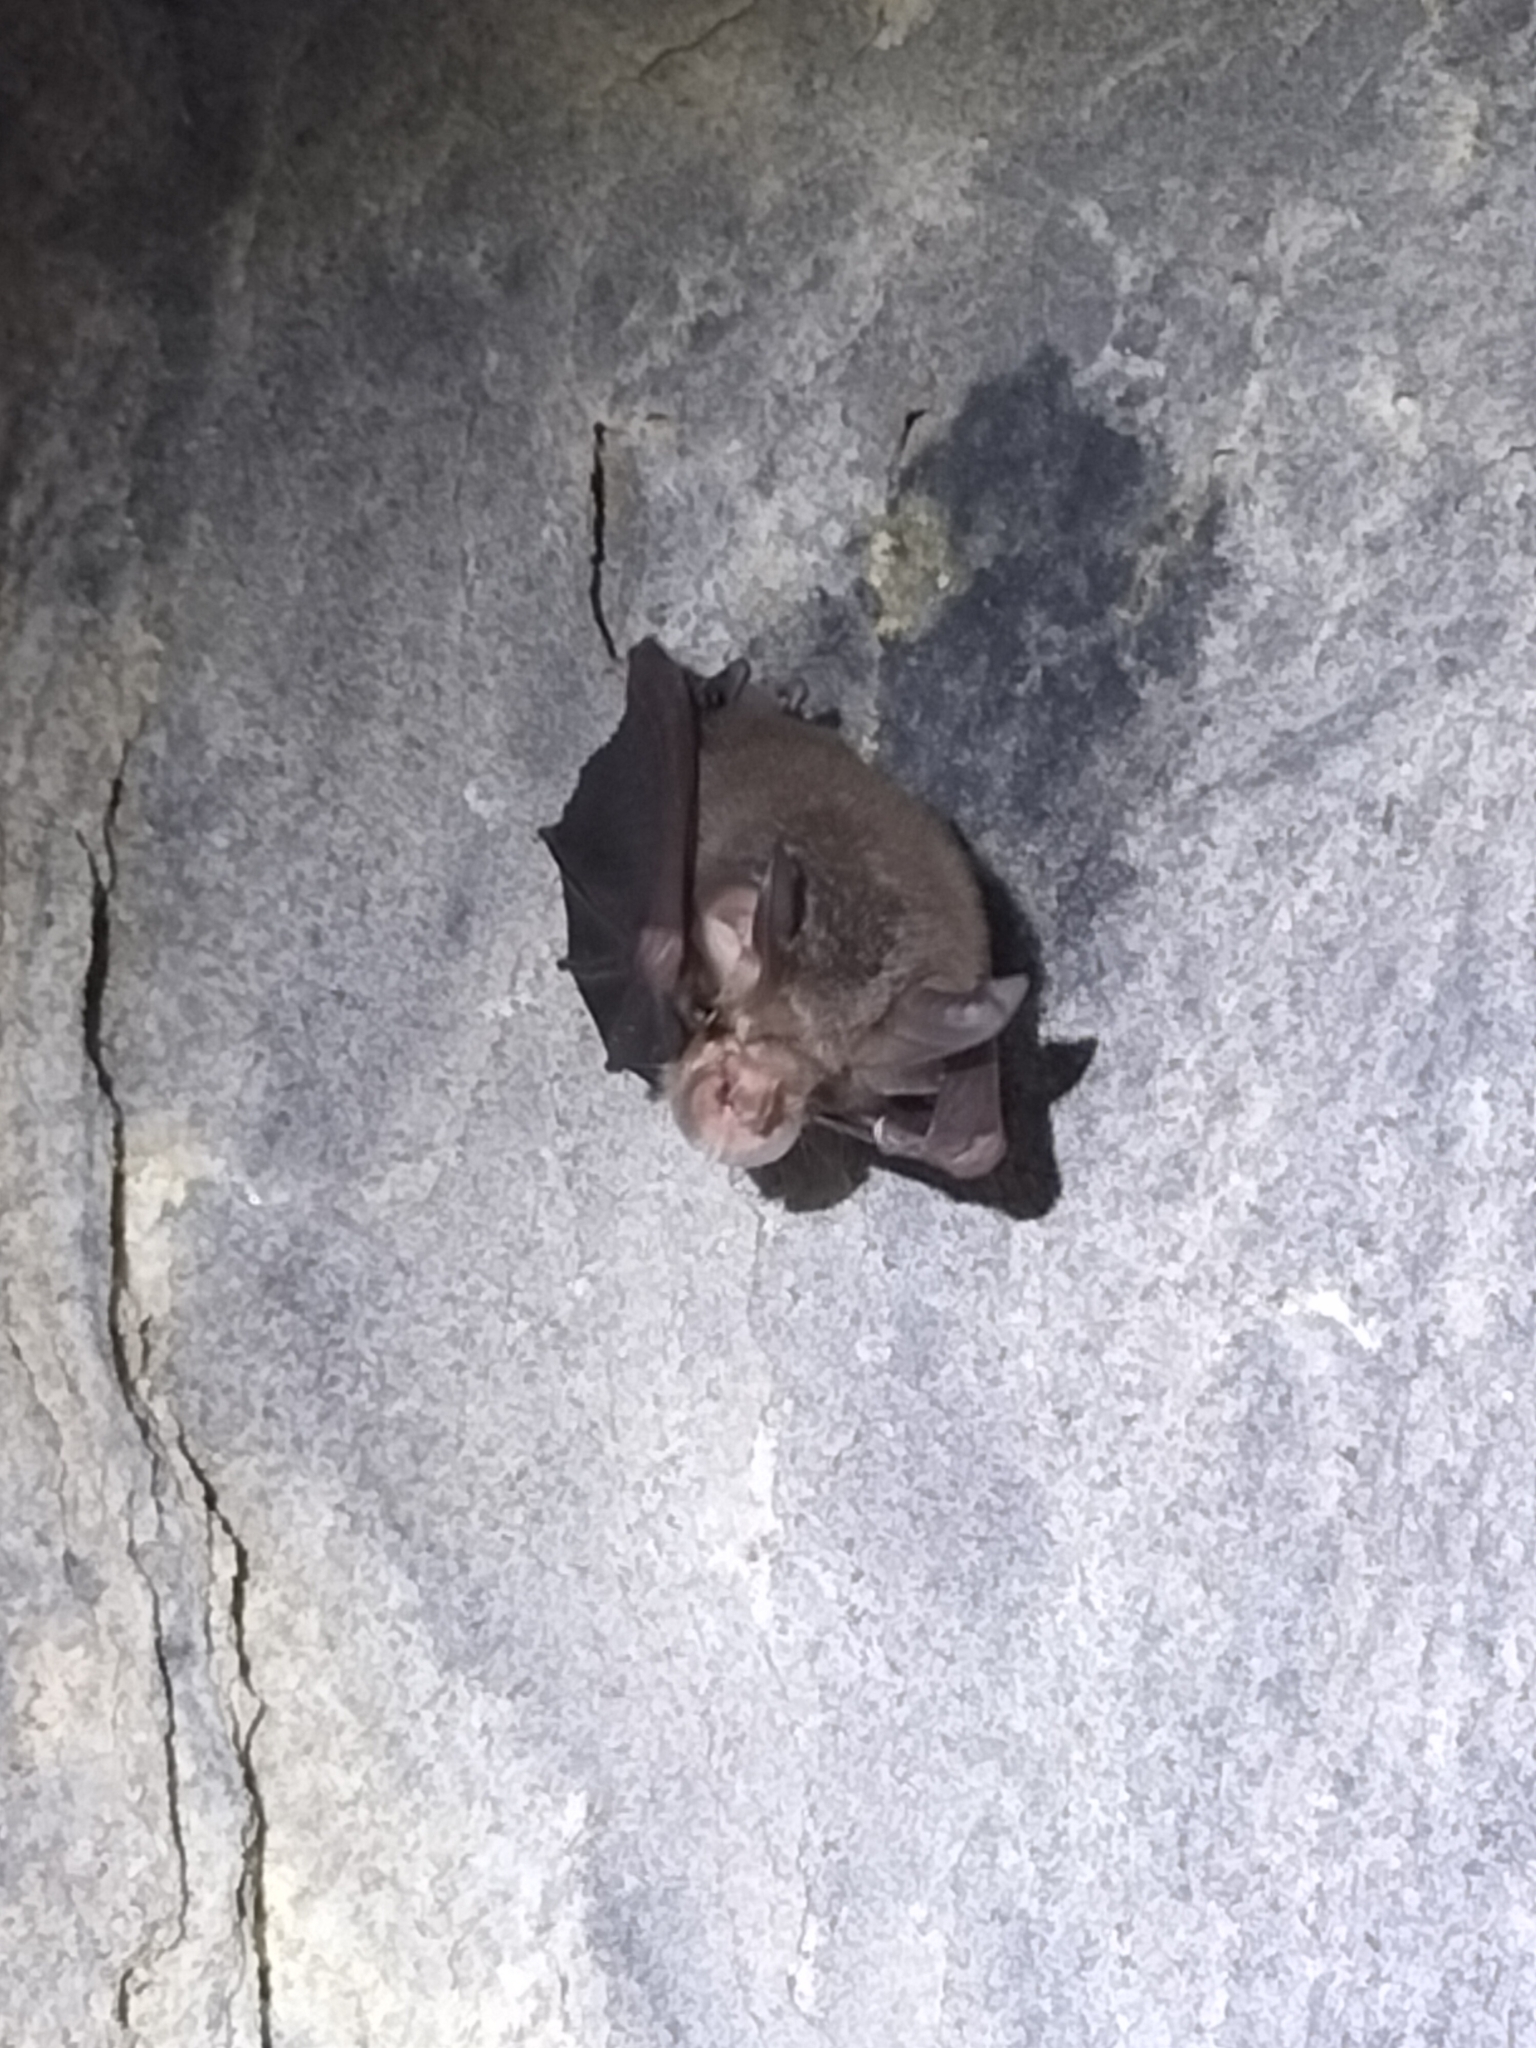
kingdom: Animalia
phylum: Chordata
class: Mammalia
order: Chiroptera
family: Rhinolophidae
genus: Rhinolophus
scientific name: Rhinolophus megaphyllus
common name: Smaller horseshoe bat
